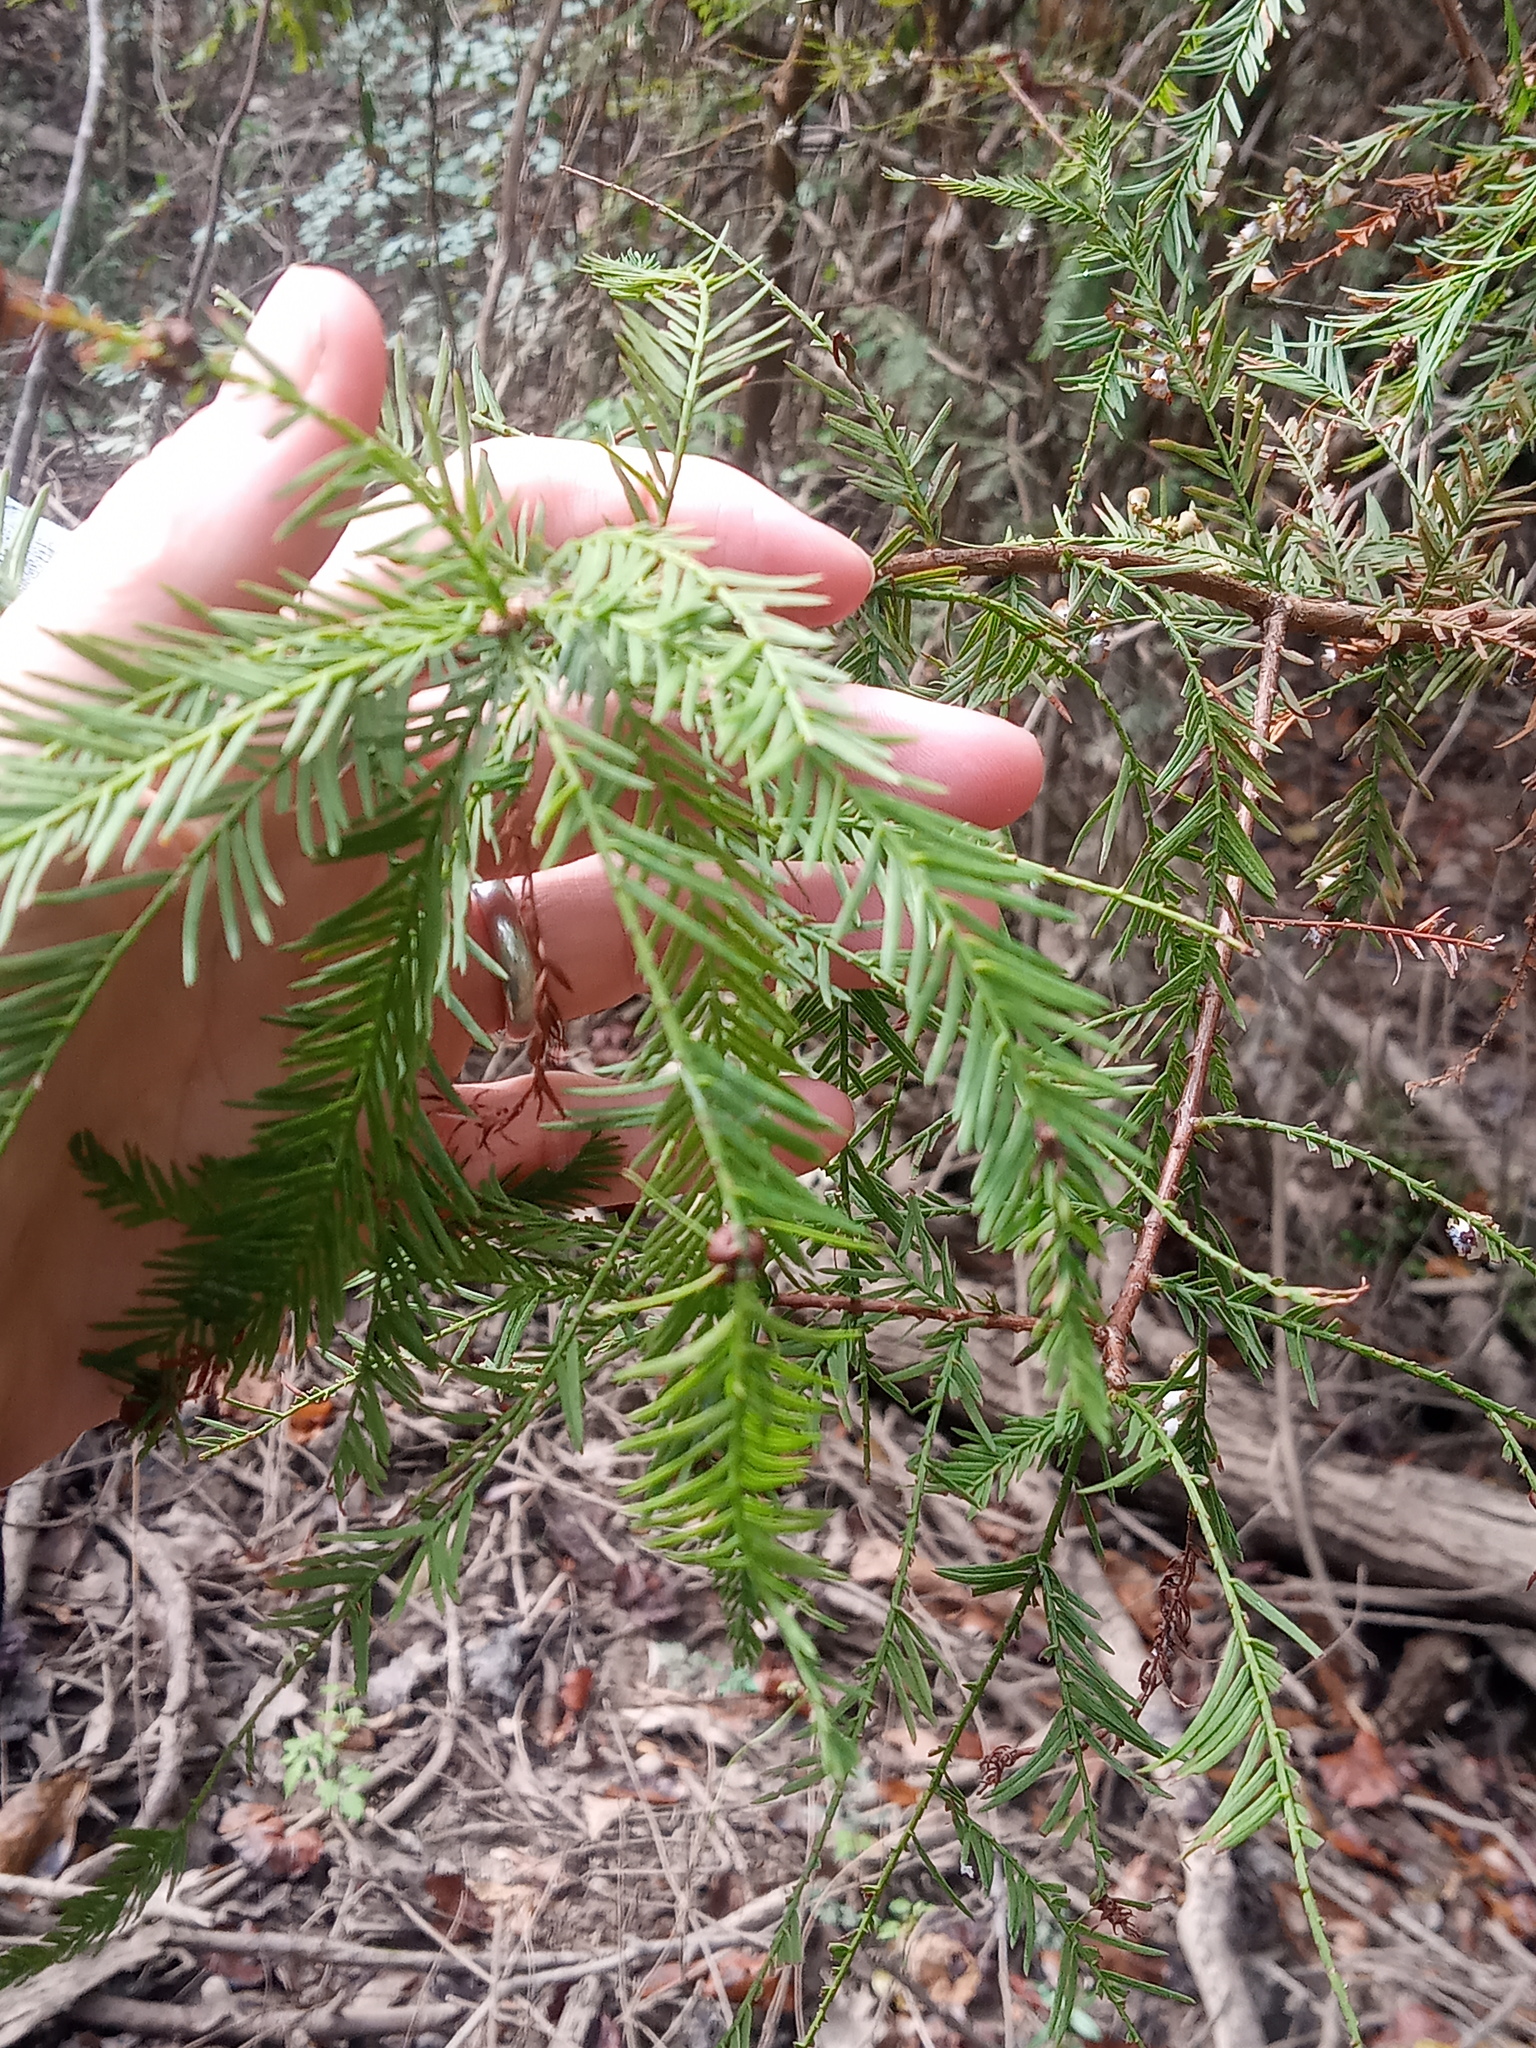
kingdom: Plantae
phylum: Tracheophyta
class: Pinopsida
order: Pinales
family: Cupressaceae
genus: Taxodium
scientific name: Taxodium distichum
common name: Bald cypress
